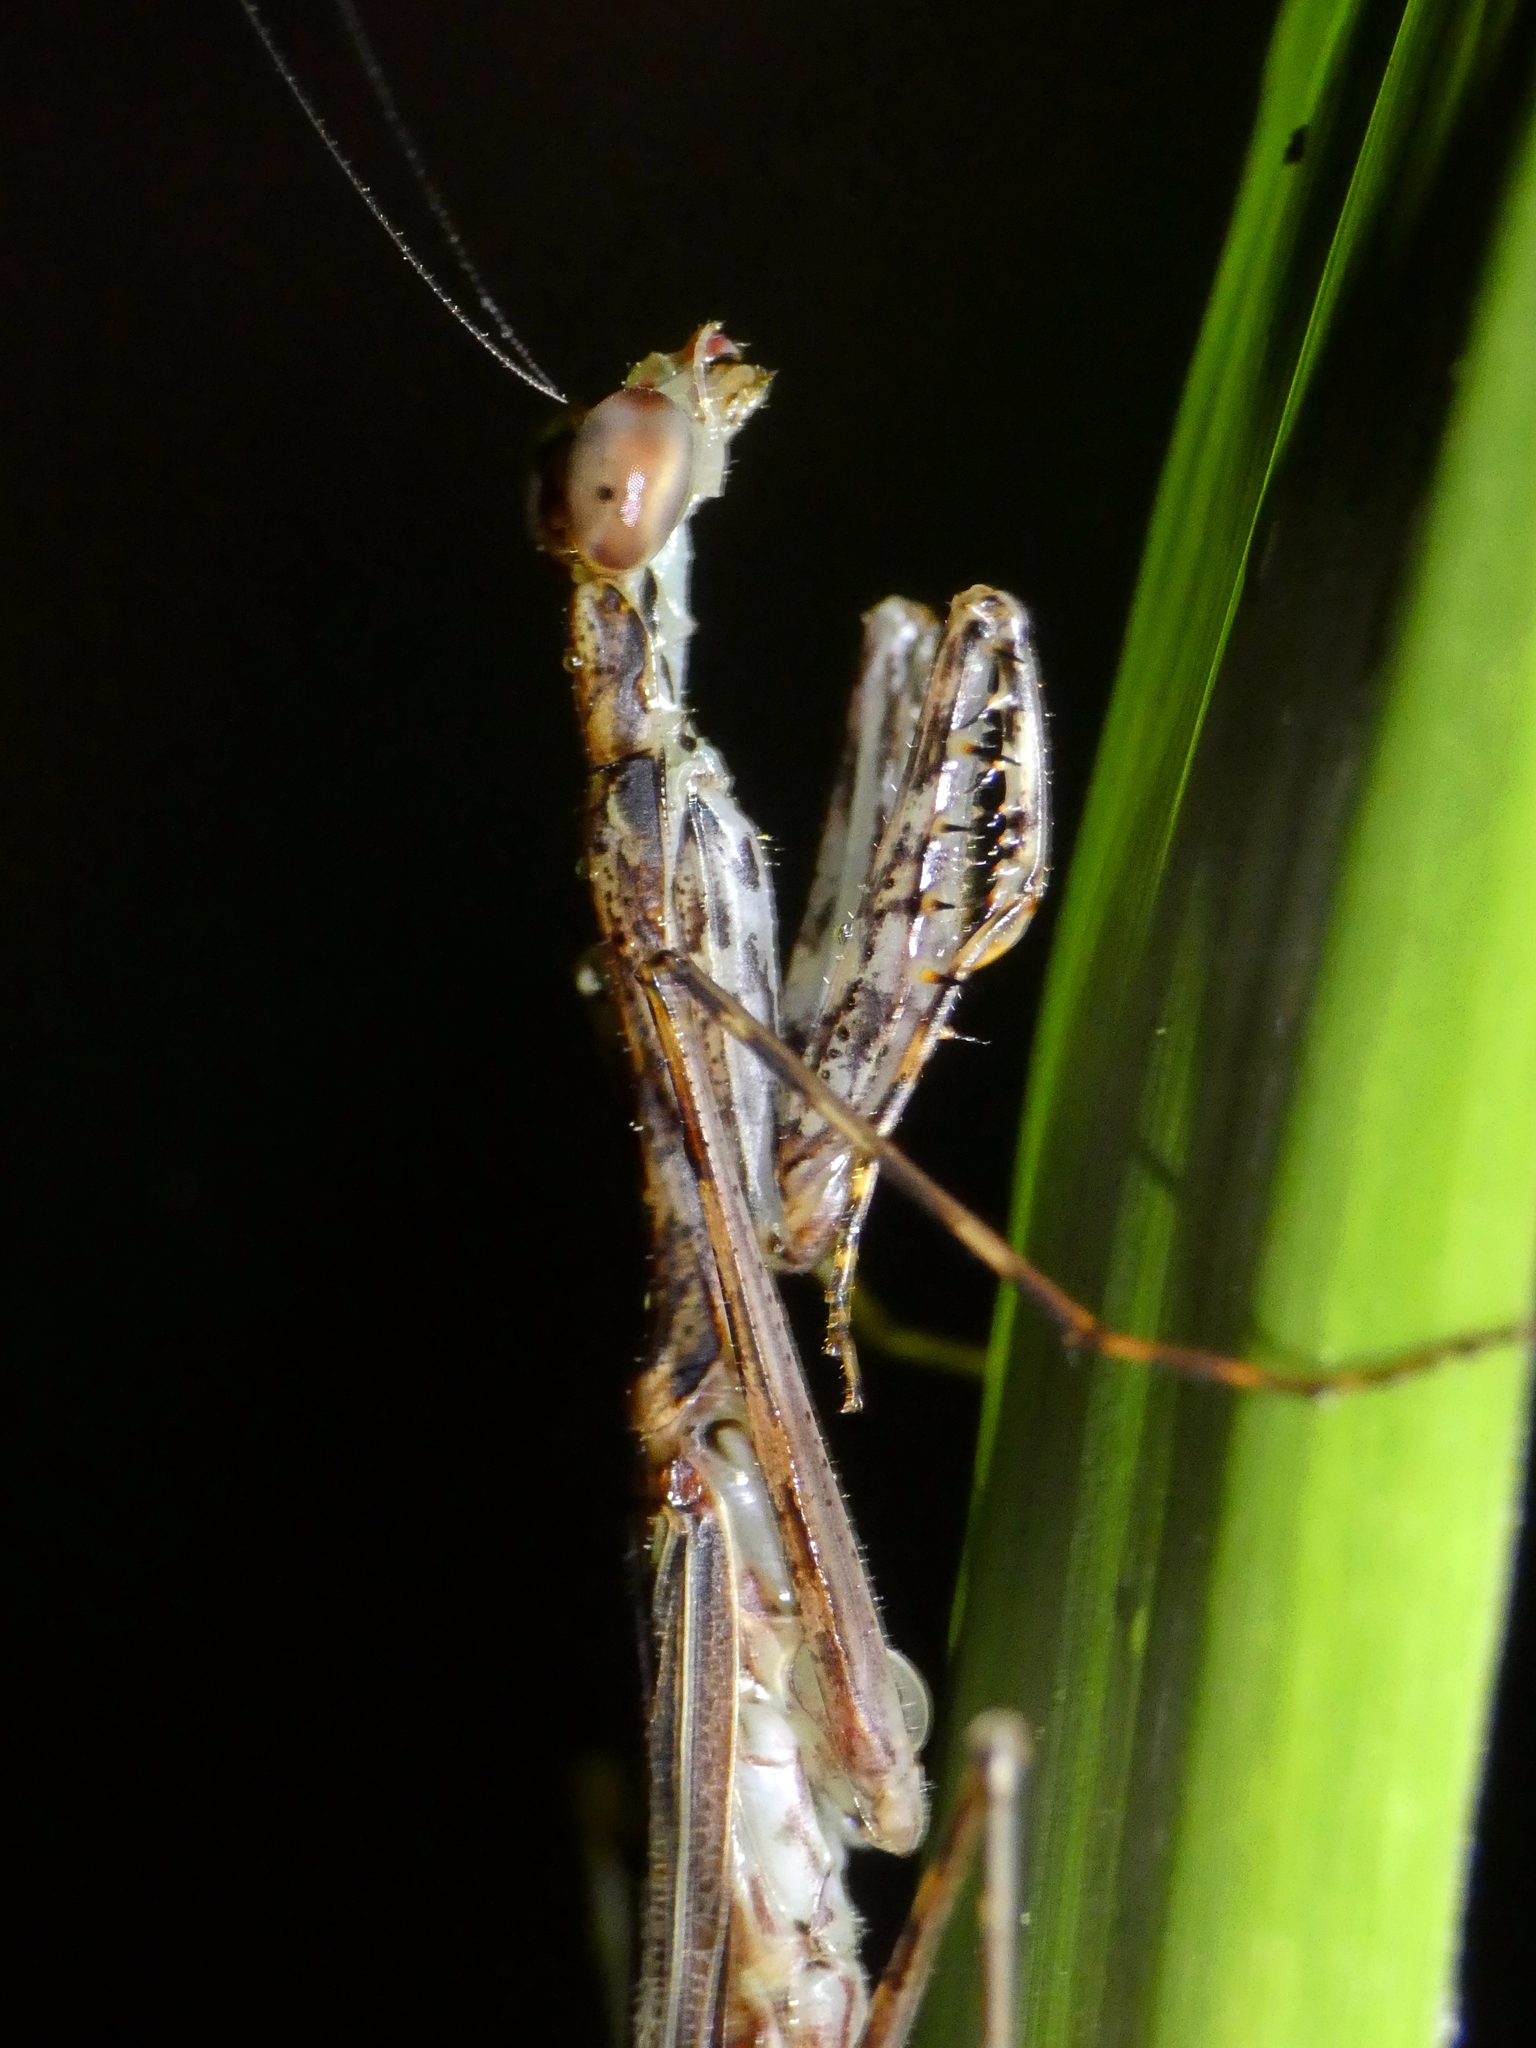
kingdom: Animalia
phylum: Arthropoda
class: Insecta
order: Mantodea
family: Nanomantidae
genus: Ciulfina
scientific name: Ciulfina rentzi
